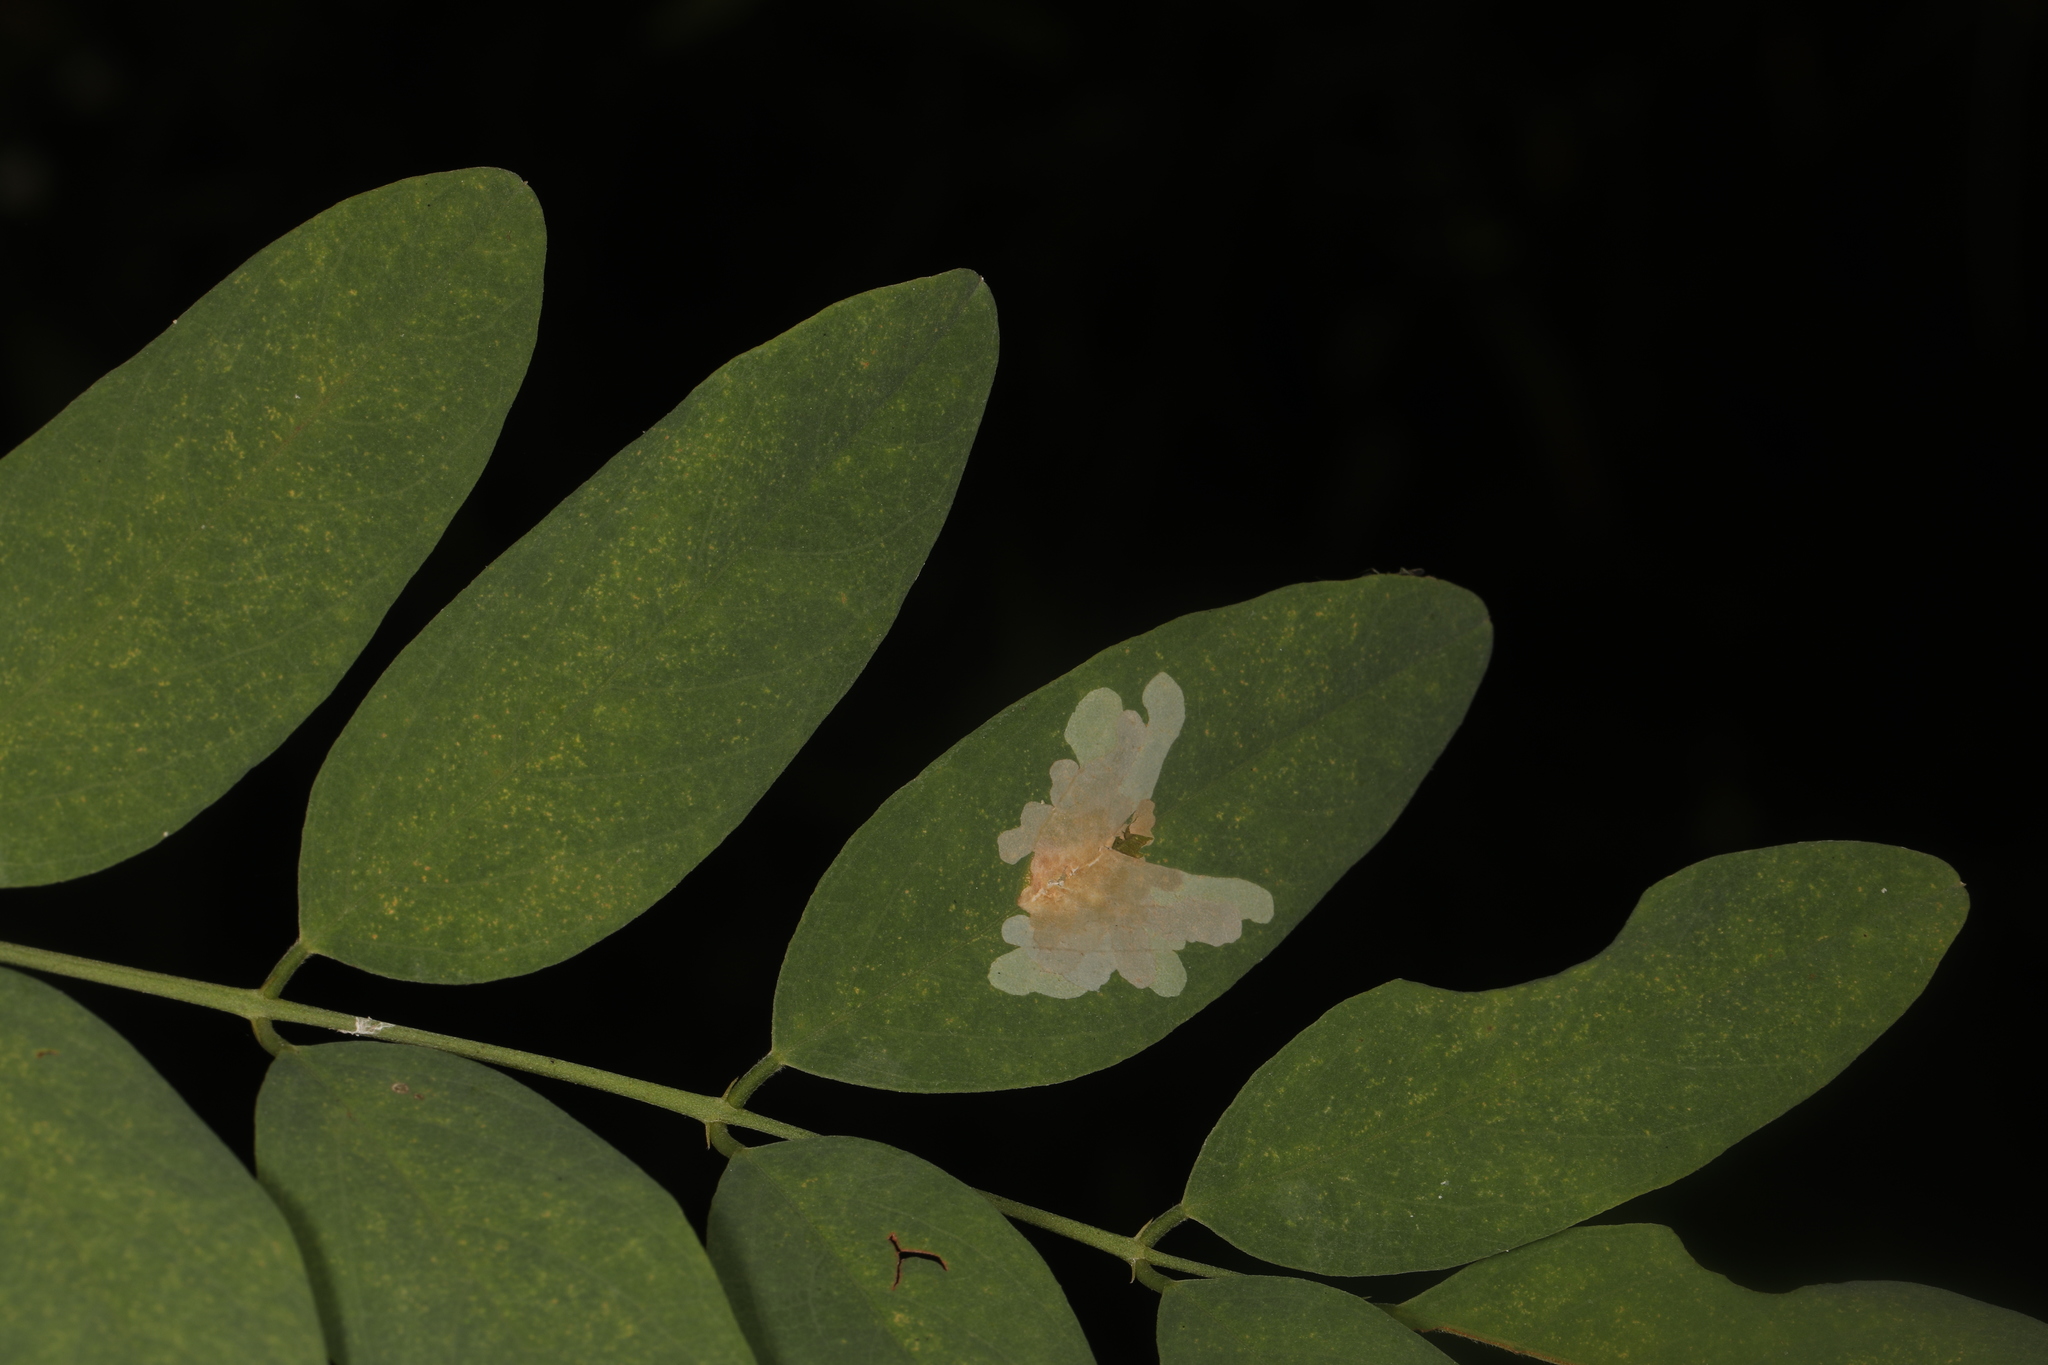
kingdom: Animalia
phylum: Arthropoda
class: Insecta
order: Lepidoptera
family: Gracillariidae
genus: Parectopa
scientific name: Parectopa robiniella
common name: Locust digitate leafminer
